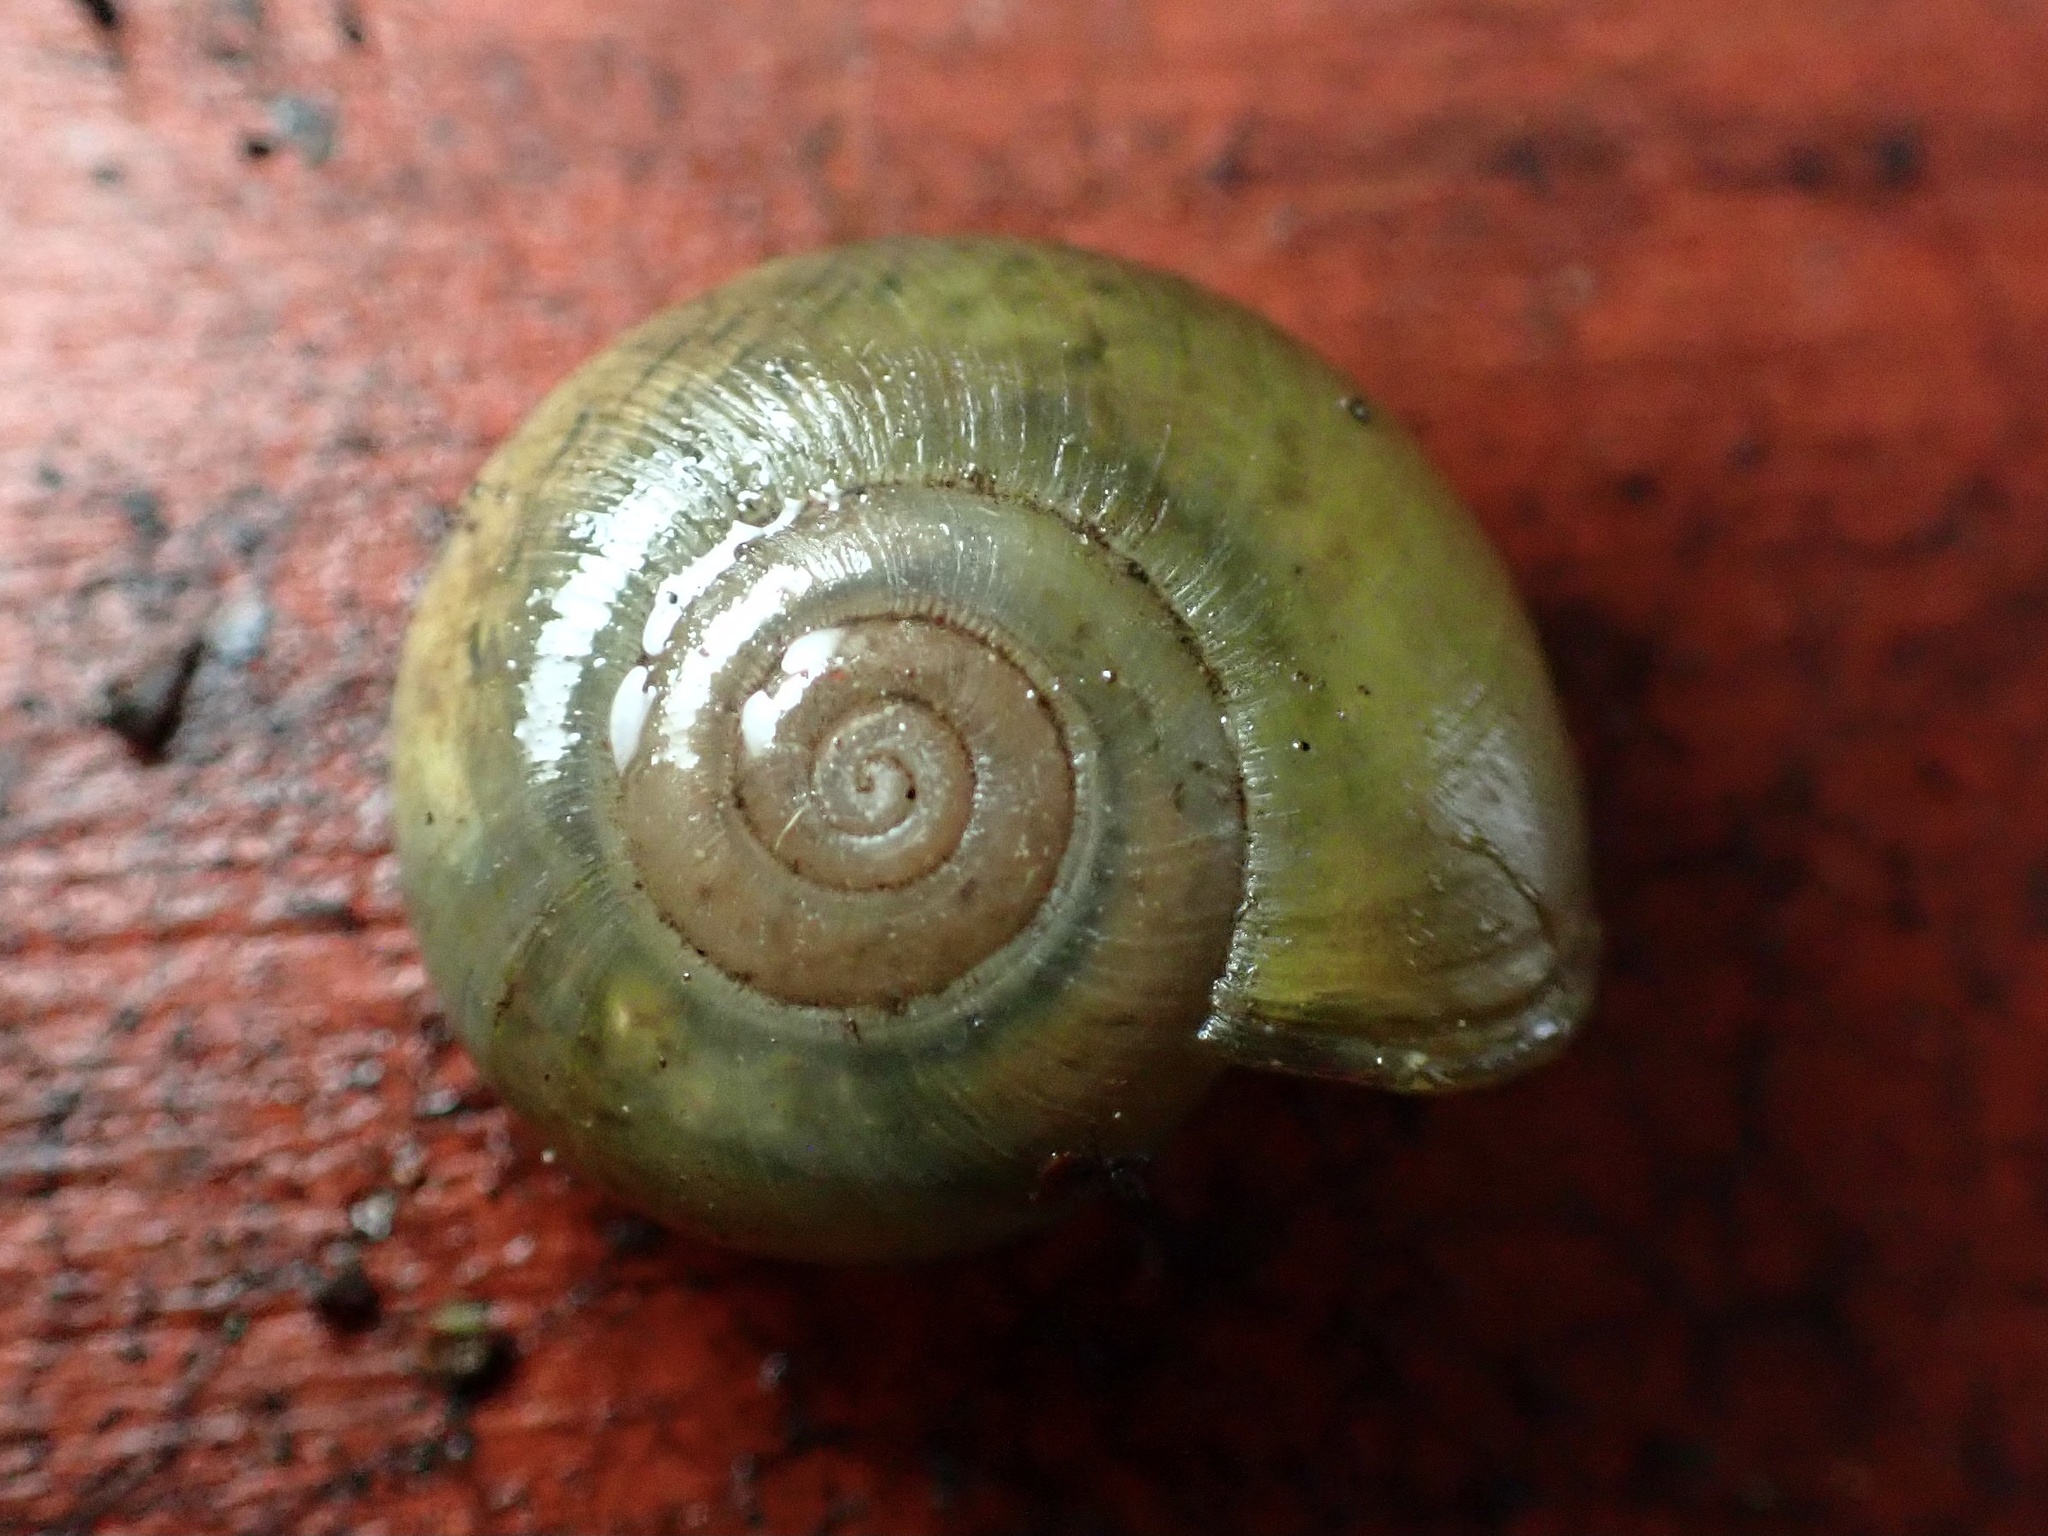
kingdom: Animalia
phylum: Mollusca
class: Gastropoda
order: Stylommatophora
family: Haplotrematidae
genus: Haplotrema
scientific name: Haplotrema minimum
